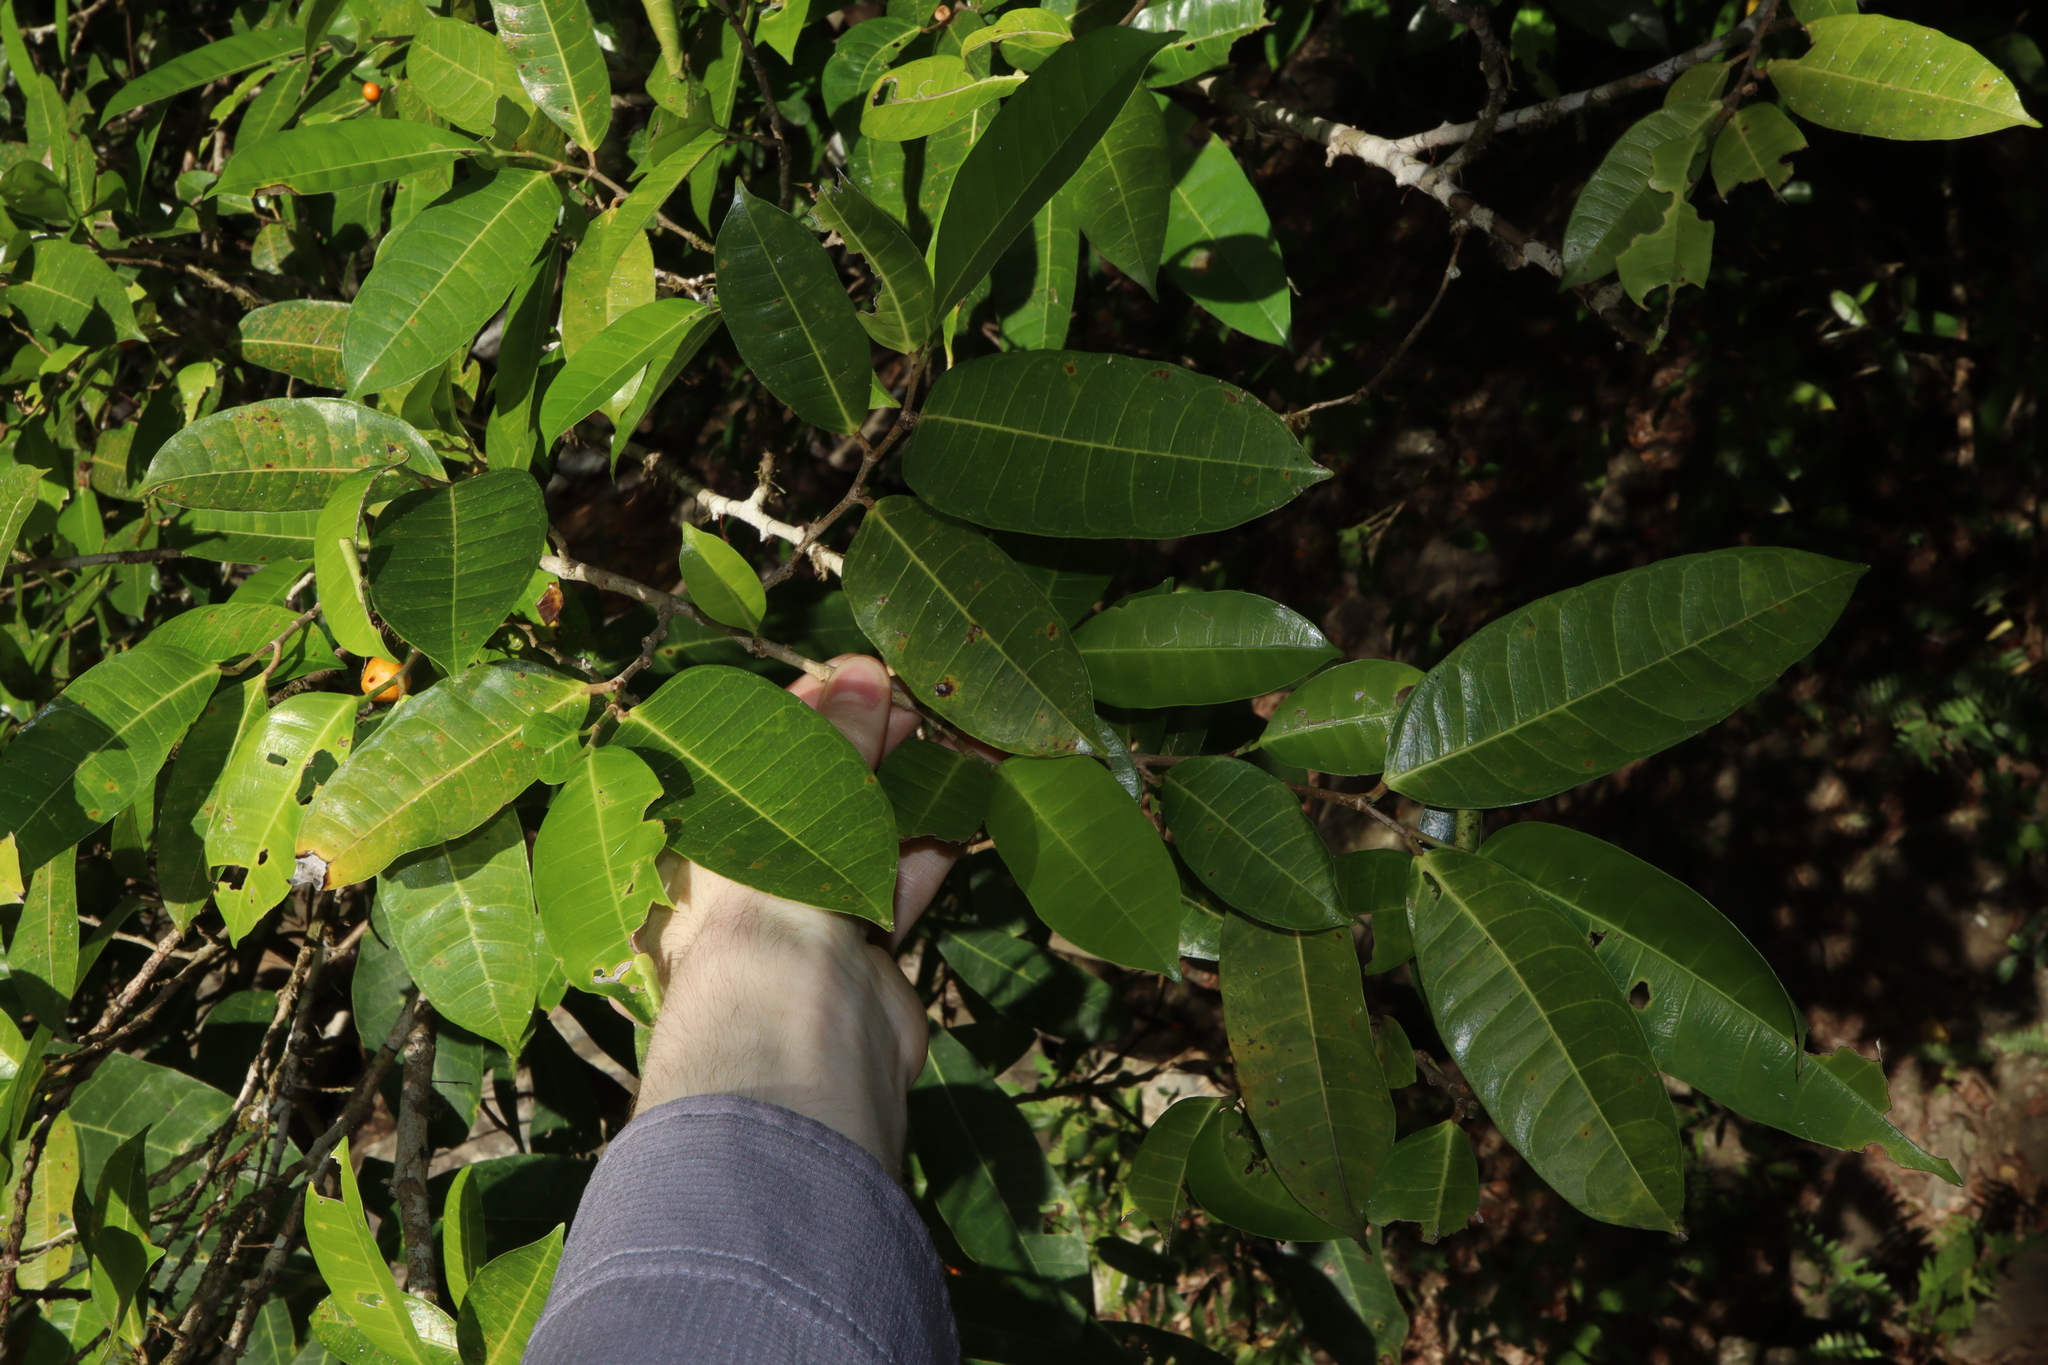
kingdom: Plantae
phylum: Tracheophyta
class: Magnoliopsida
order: Rosales
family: Moraceae
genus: Ficus
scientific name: Ficus virgata
